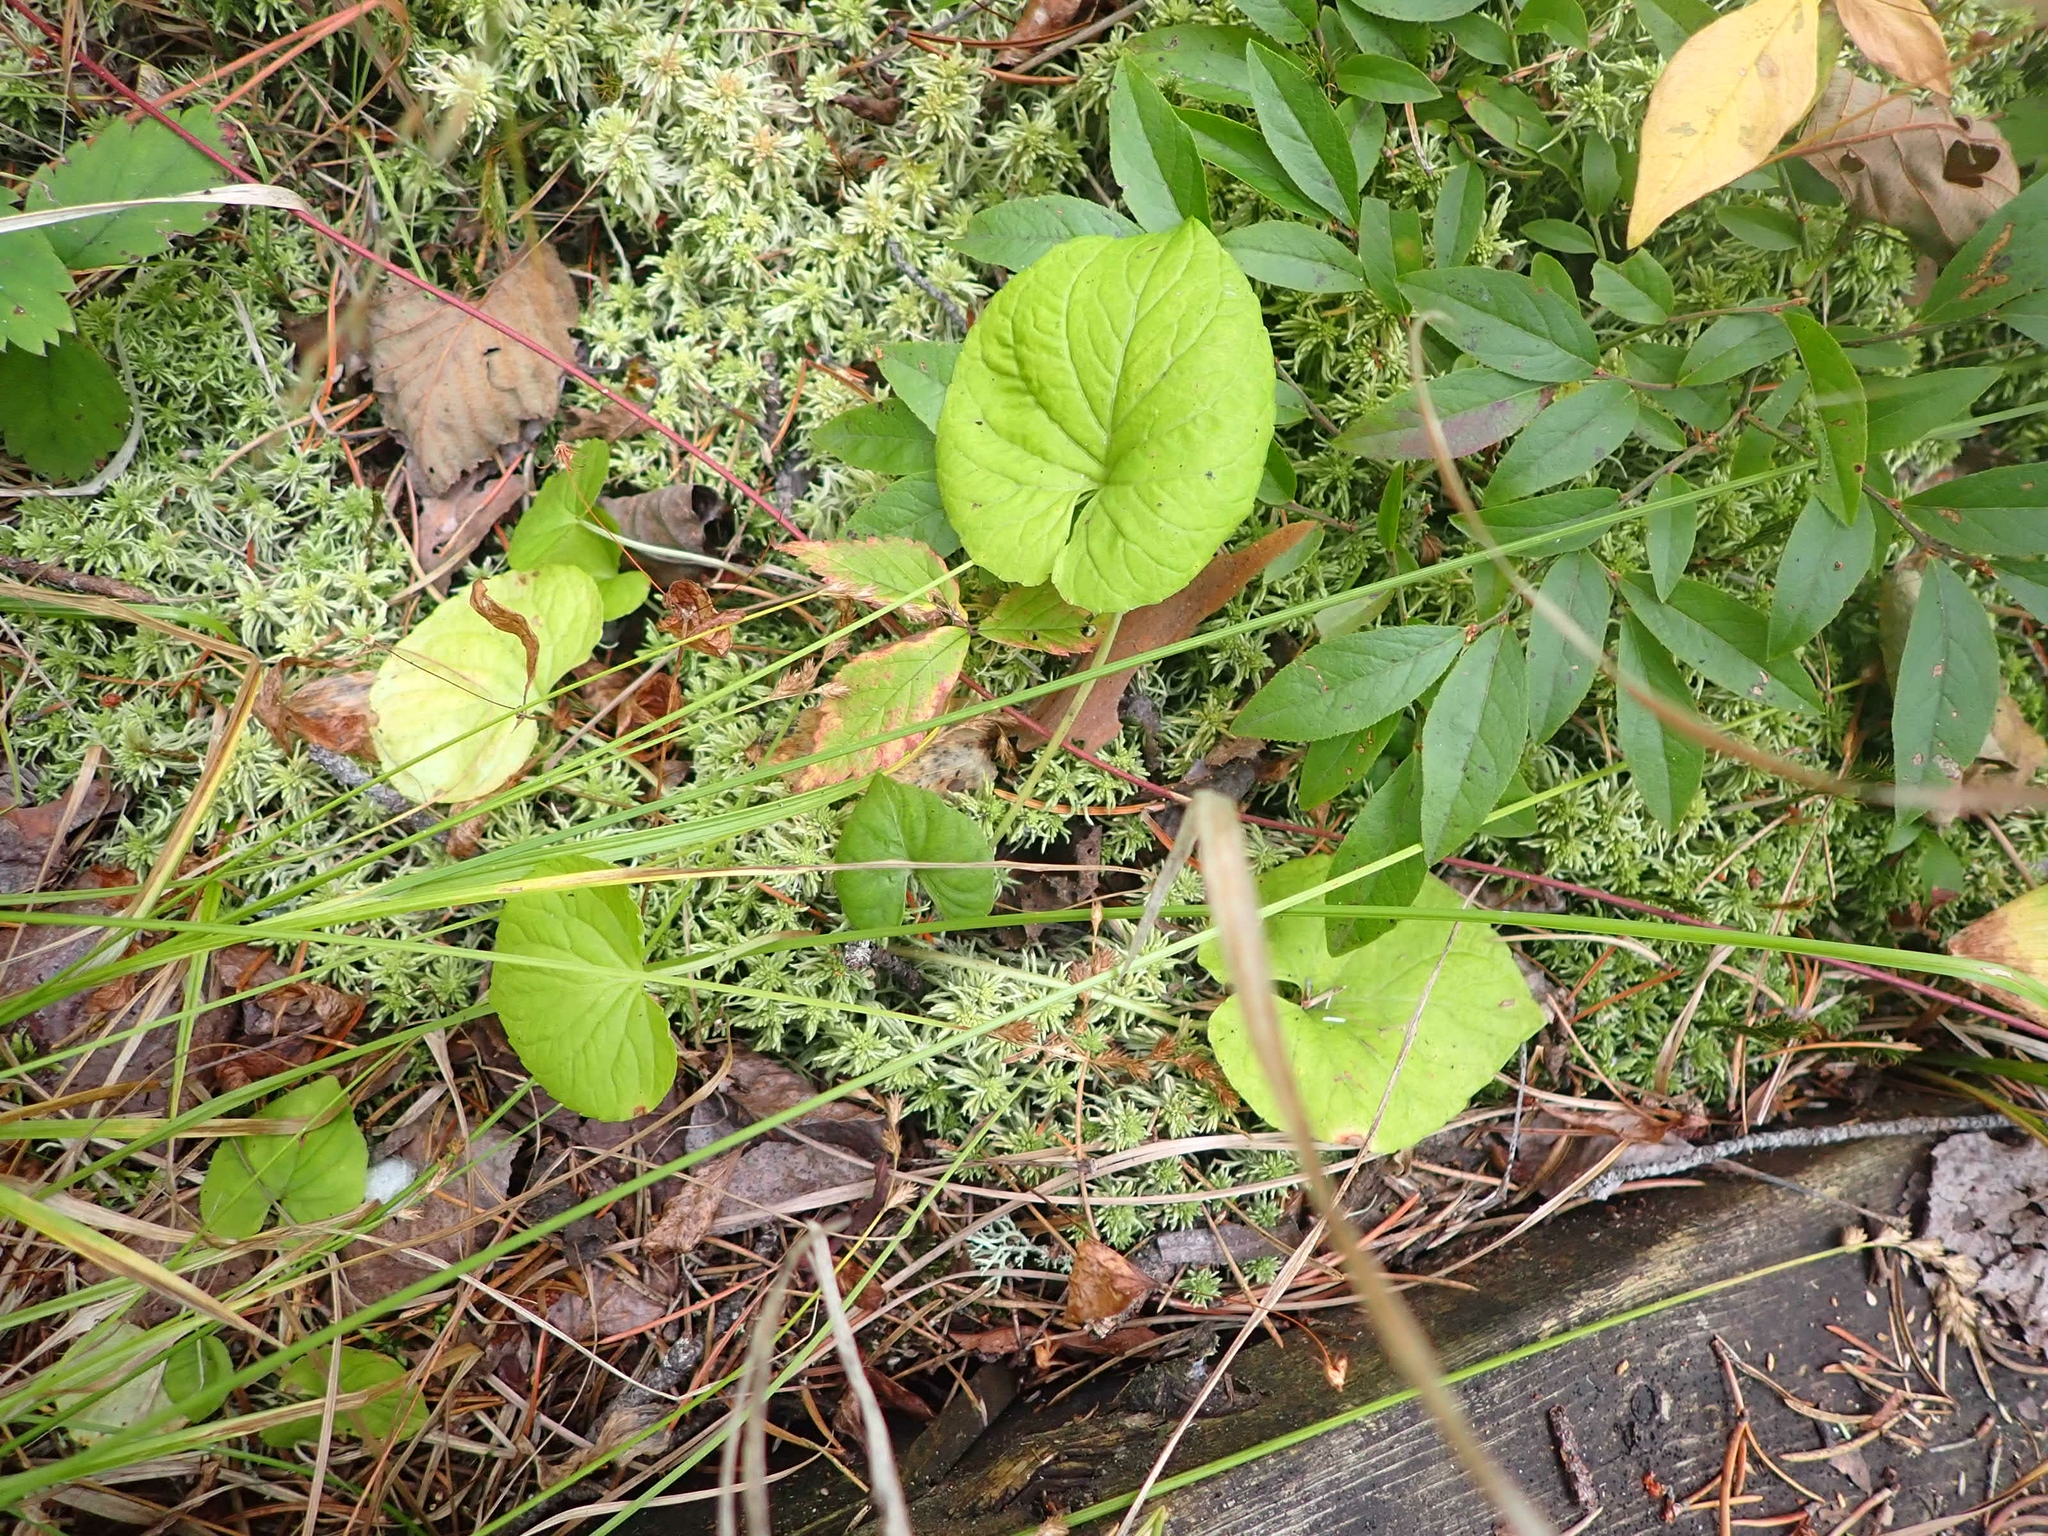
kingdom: Plantae
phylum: Tracheophyta
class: Magnoliopsida
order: Malpighiales
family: Violaceae
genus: Viola
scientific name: Viola renifolia
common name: Kidney-leaf violet
